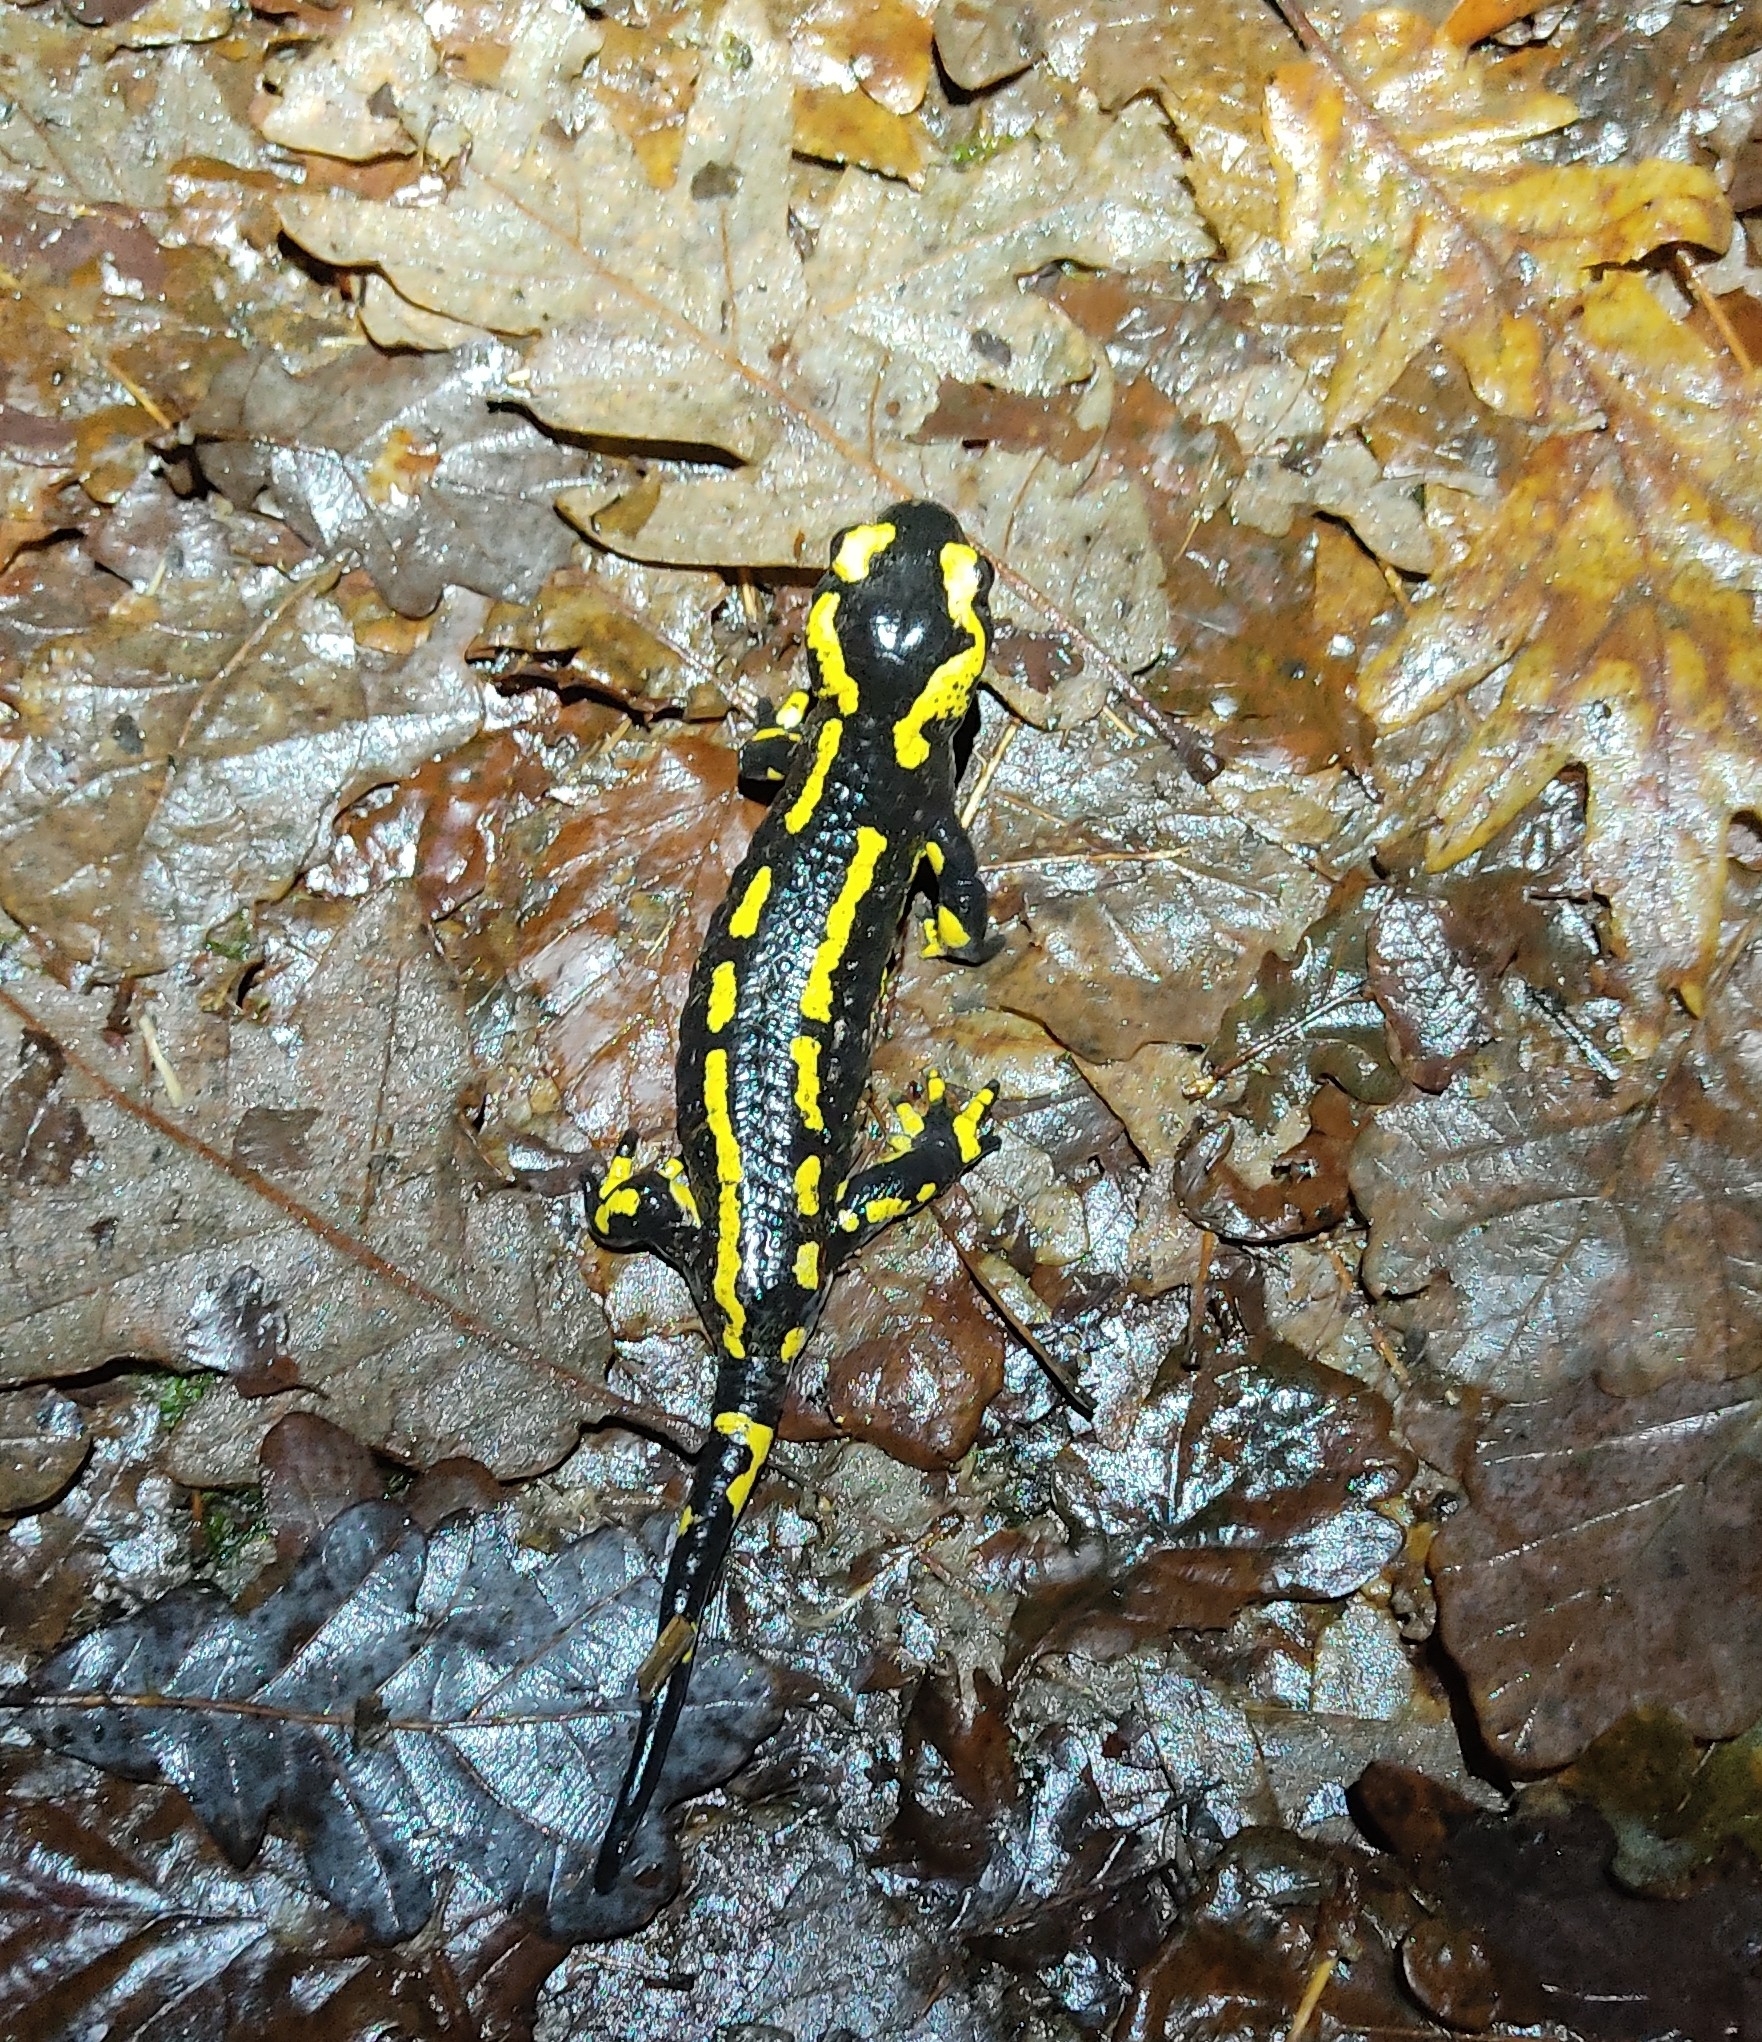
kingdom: Animalia
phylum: Chordata
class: Amphibia
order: Caudata
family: Salamandridae
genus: Salamandra
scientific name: Salamandra salamandra
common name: Fire salamander
